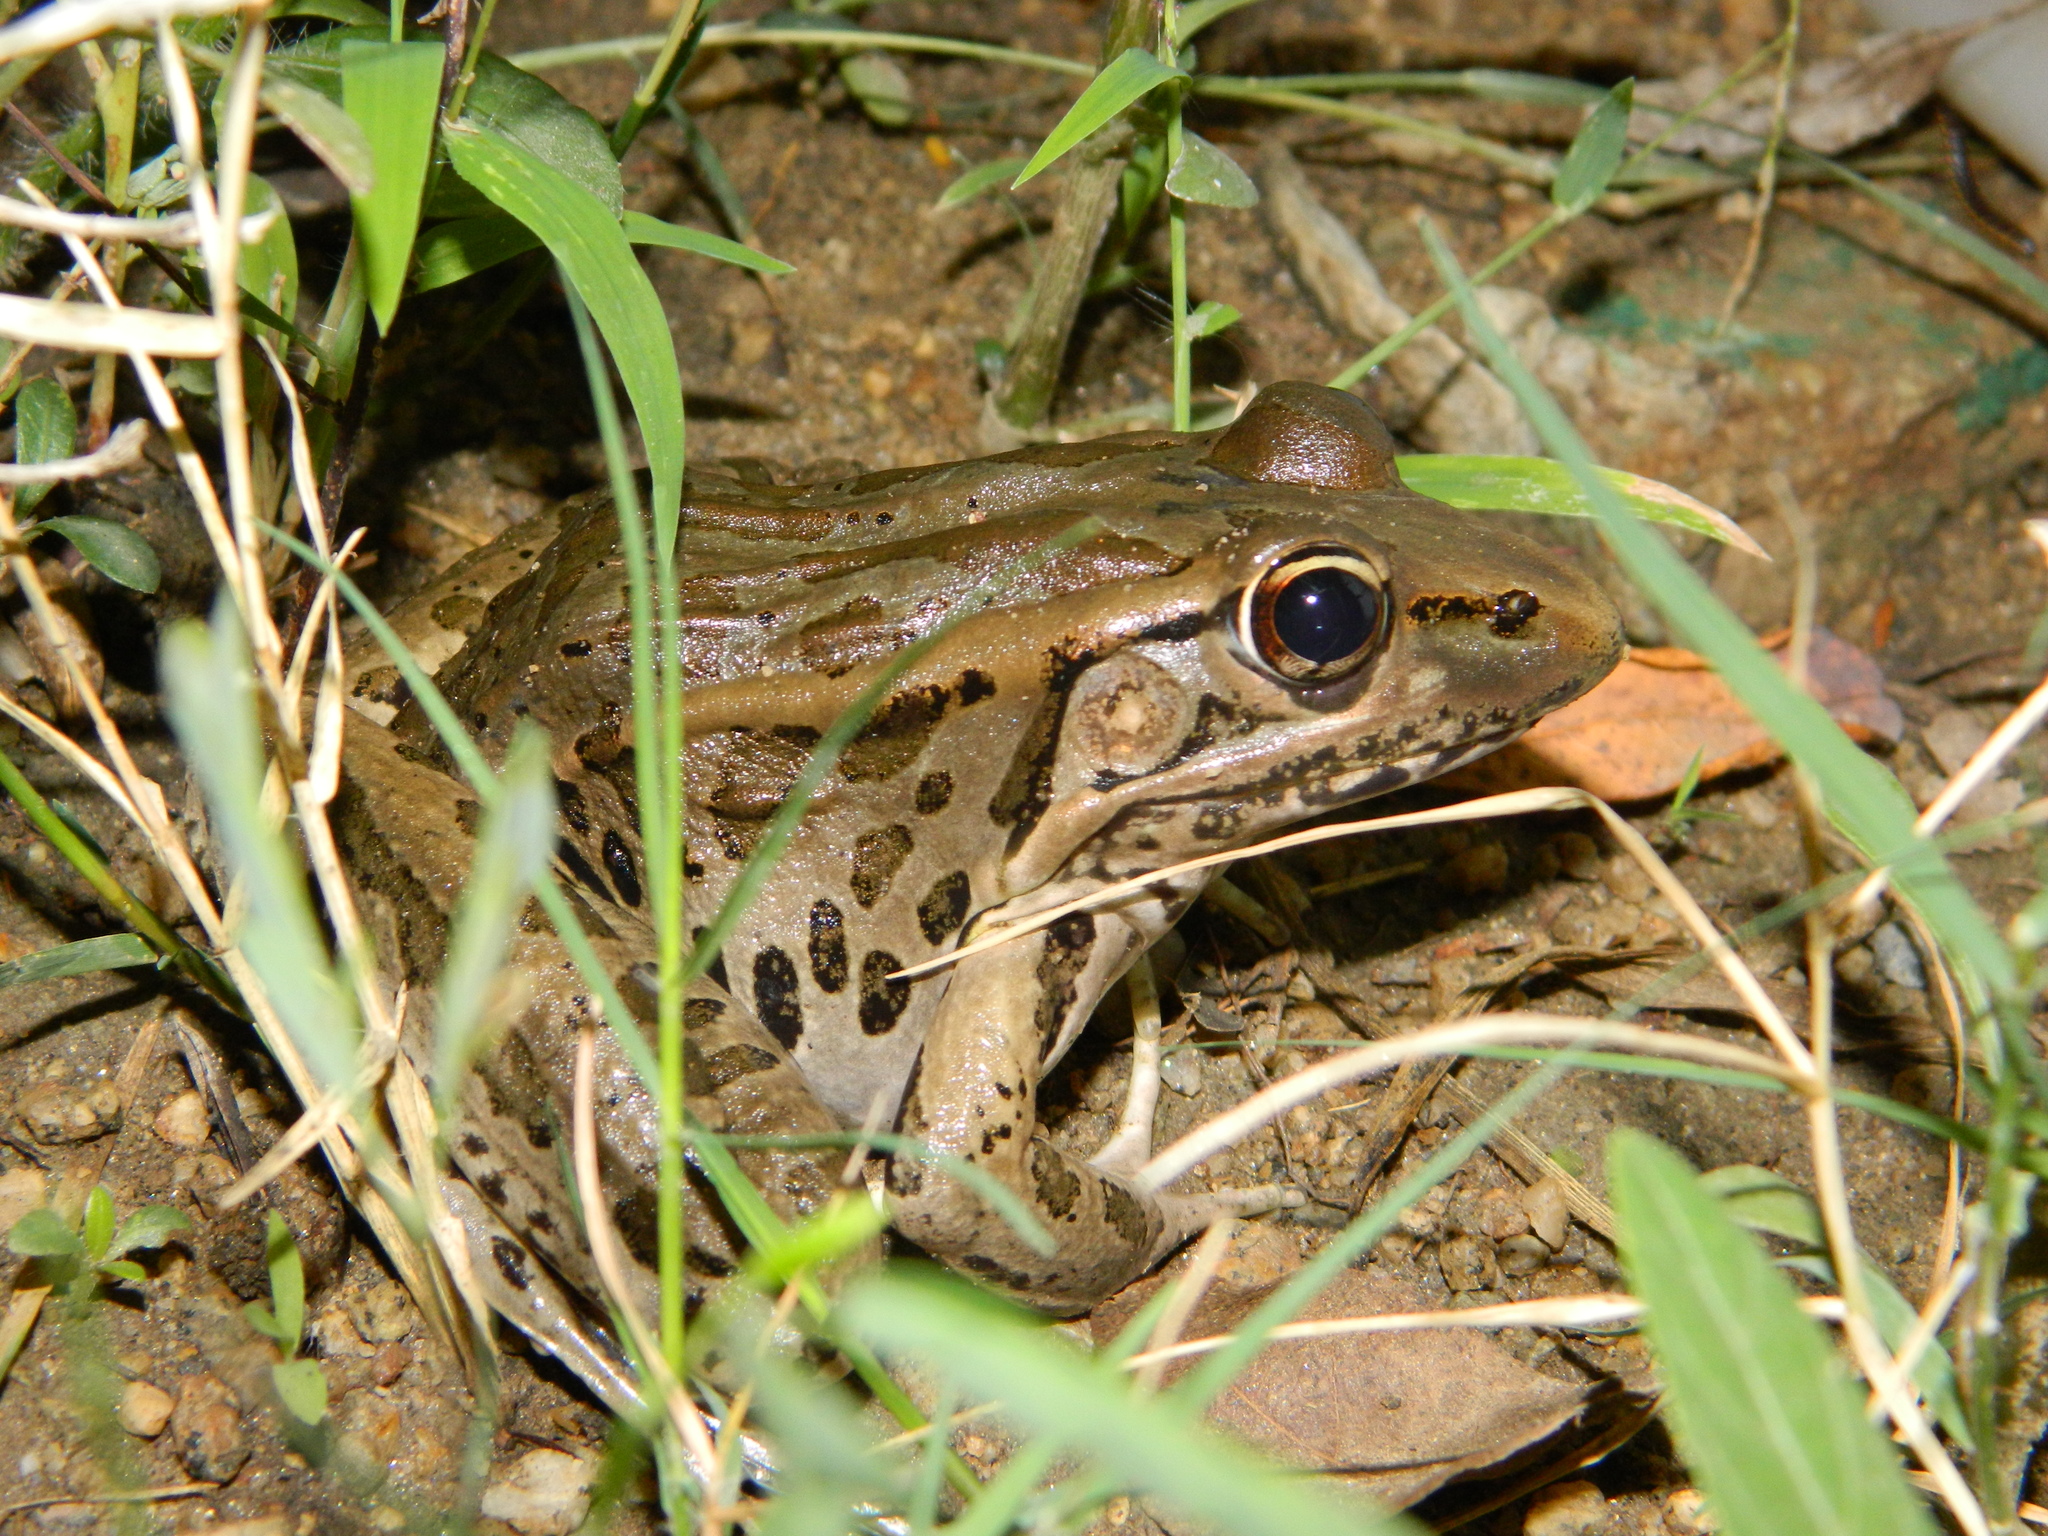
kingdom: Animalia
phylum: Chordata
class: Amphibia
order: Anura
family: Ranidae
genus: Lithobates
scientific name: Lithobates forreri
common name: Forrer's grass frog
